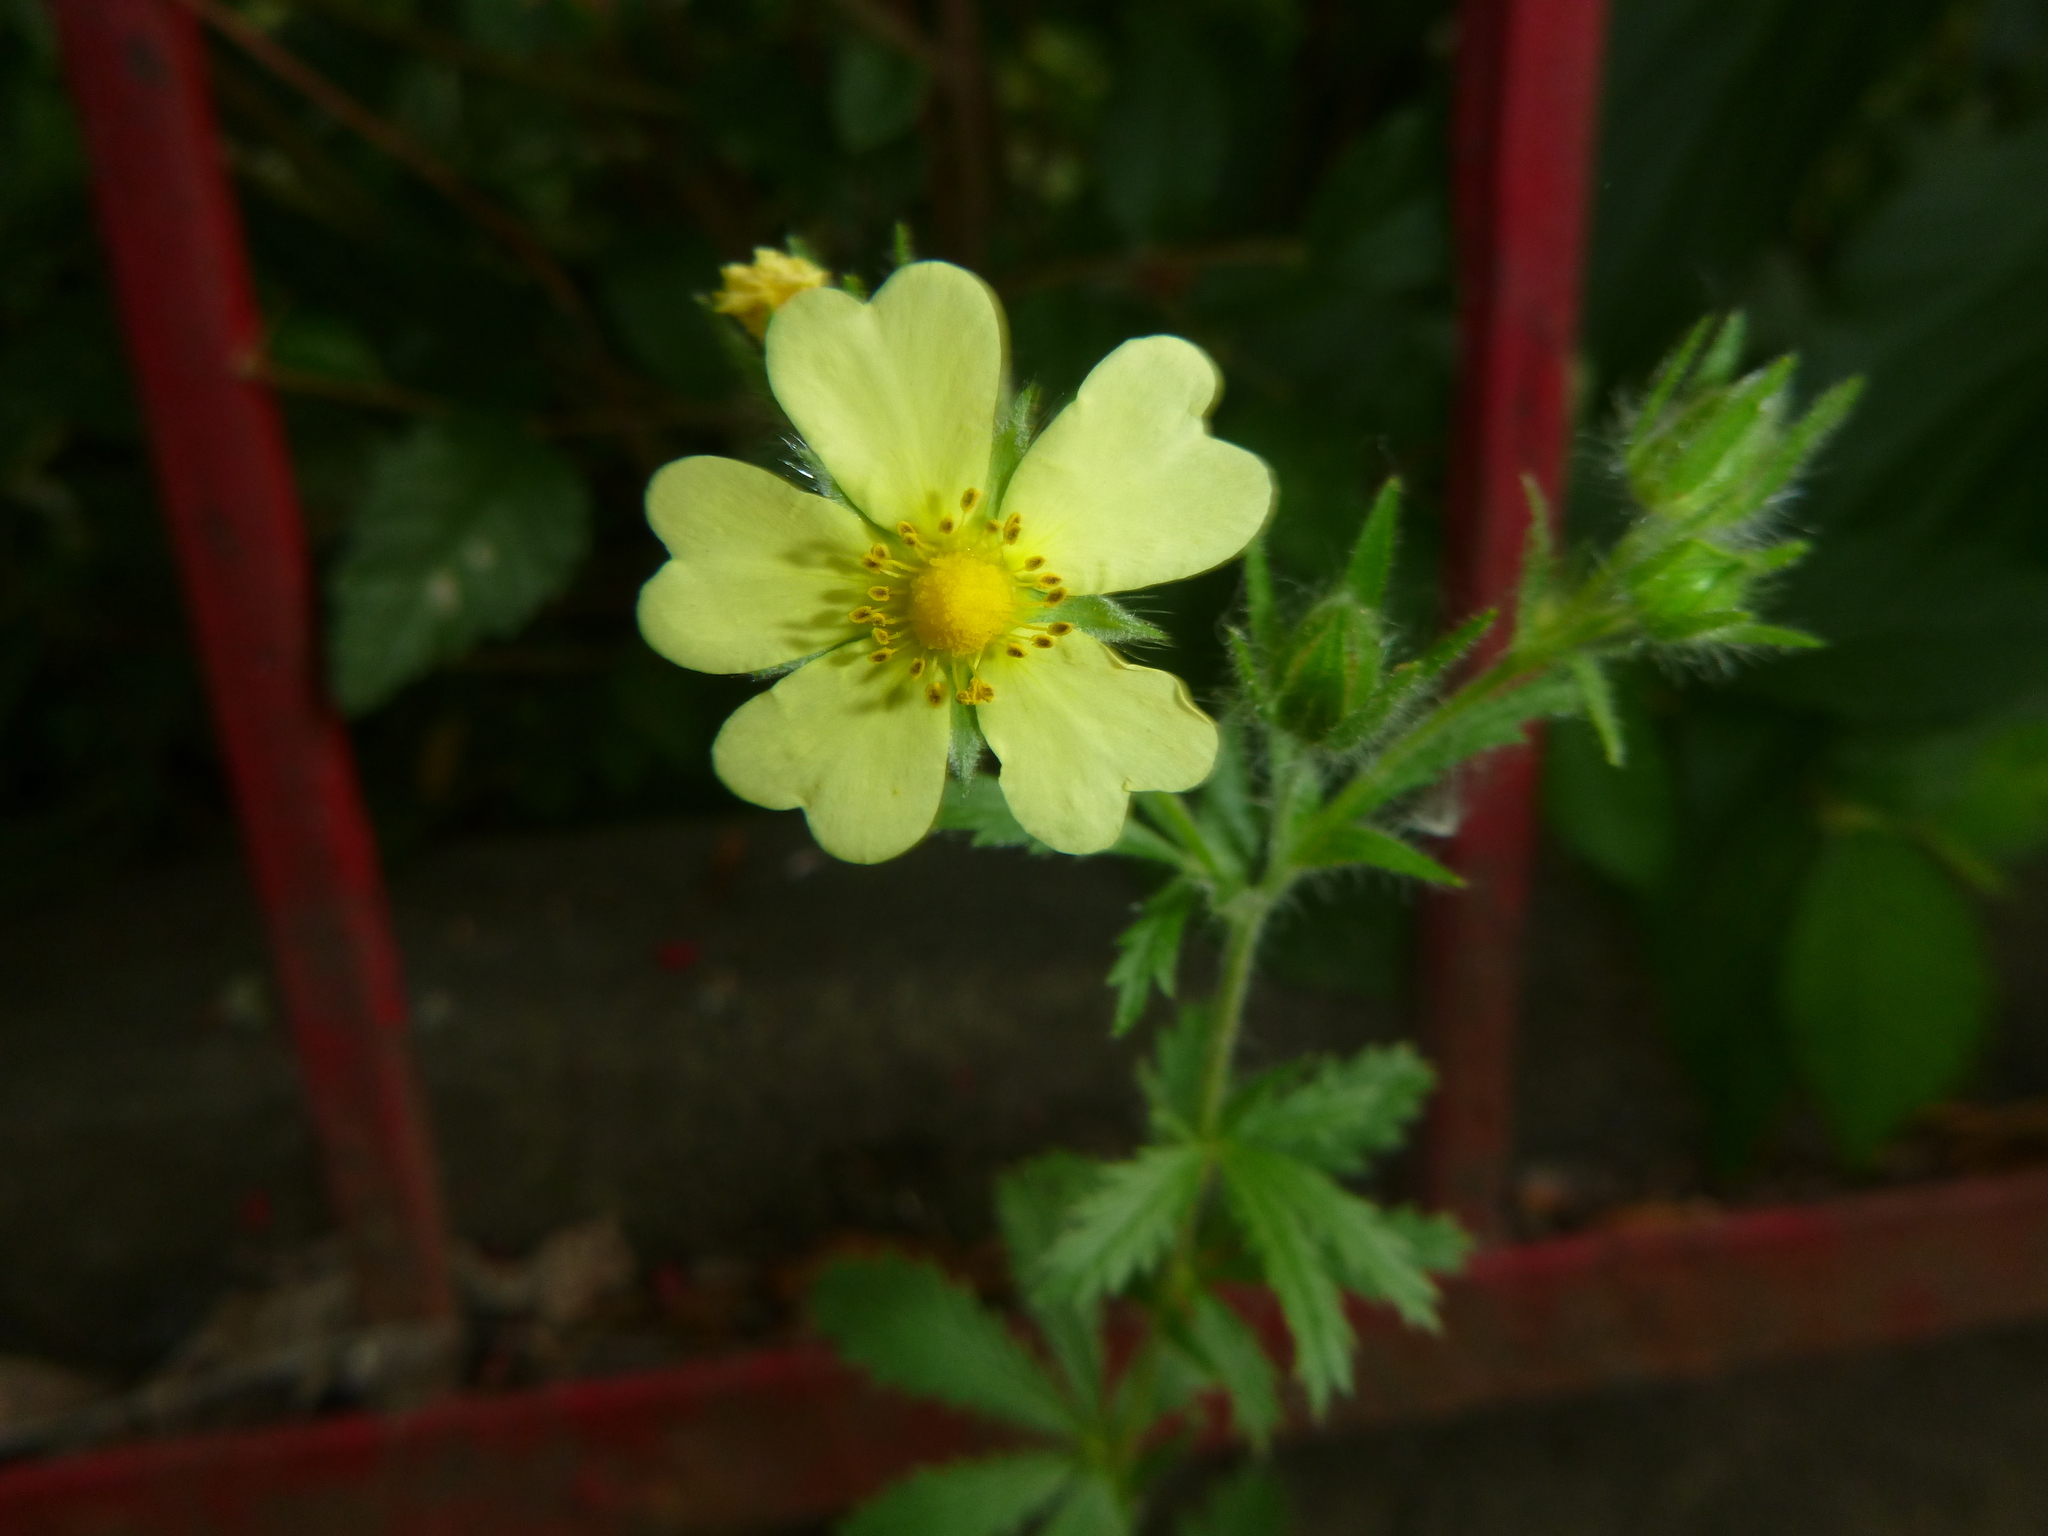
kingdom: Plantae
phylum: Tracheophyta
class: Magnoliopsida
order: Rosales
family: Rosaceae
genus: Potentilla
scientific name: Potentilla recta
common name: Sulphur cinquefoil
